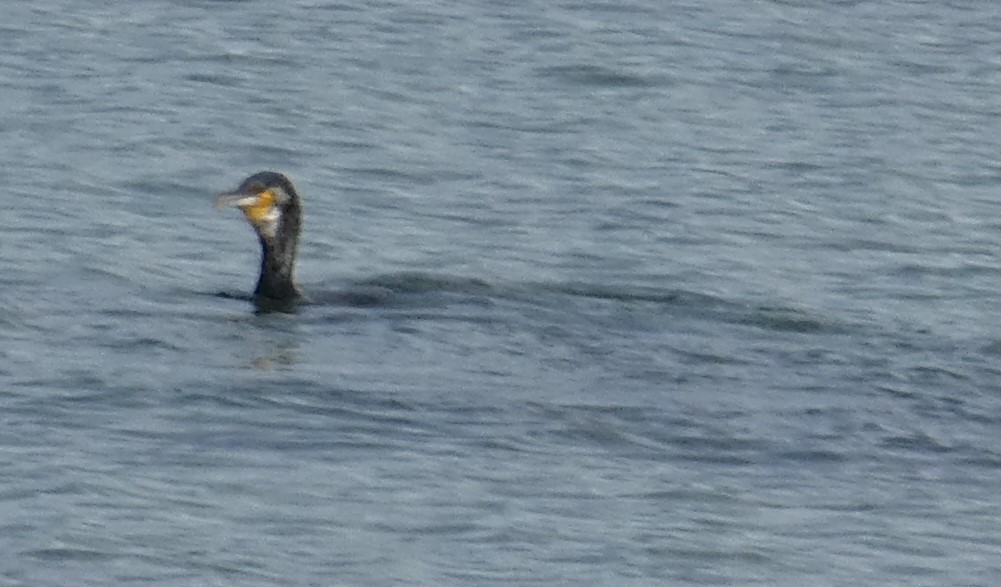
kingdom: Animalia
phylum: Chordata
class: Aves
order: Suliformes
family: Phalacrocoracidae
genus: Phalacrocorax
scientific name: Phalacrocorax carbo
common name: Great cormorant
